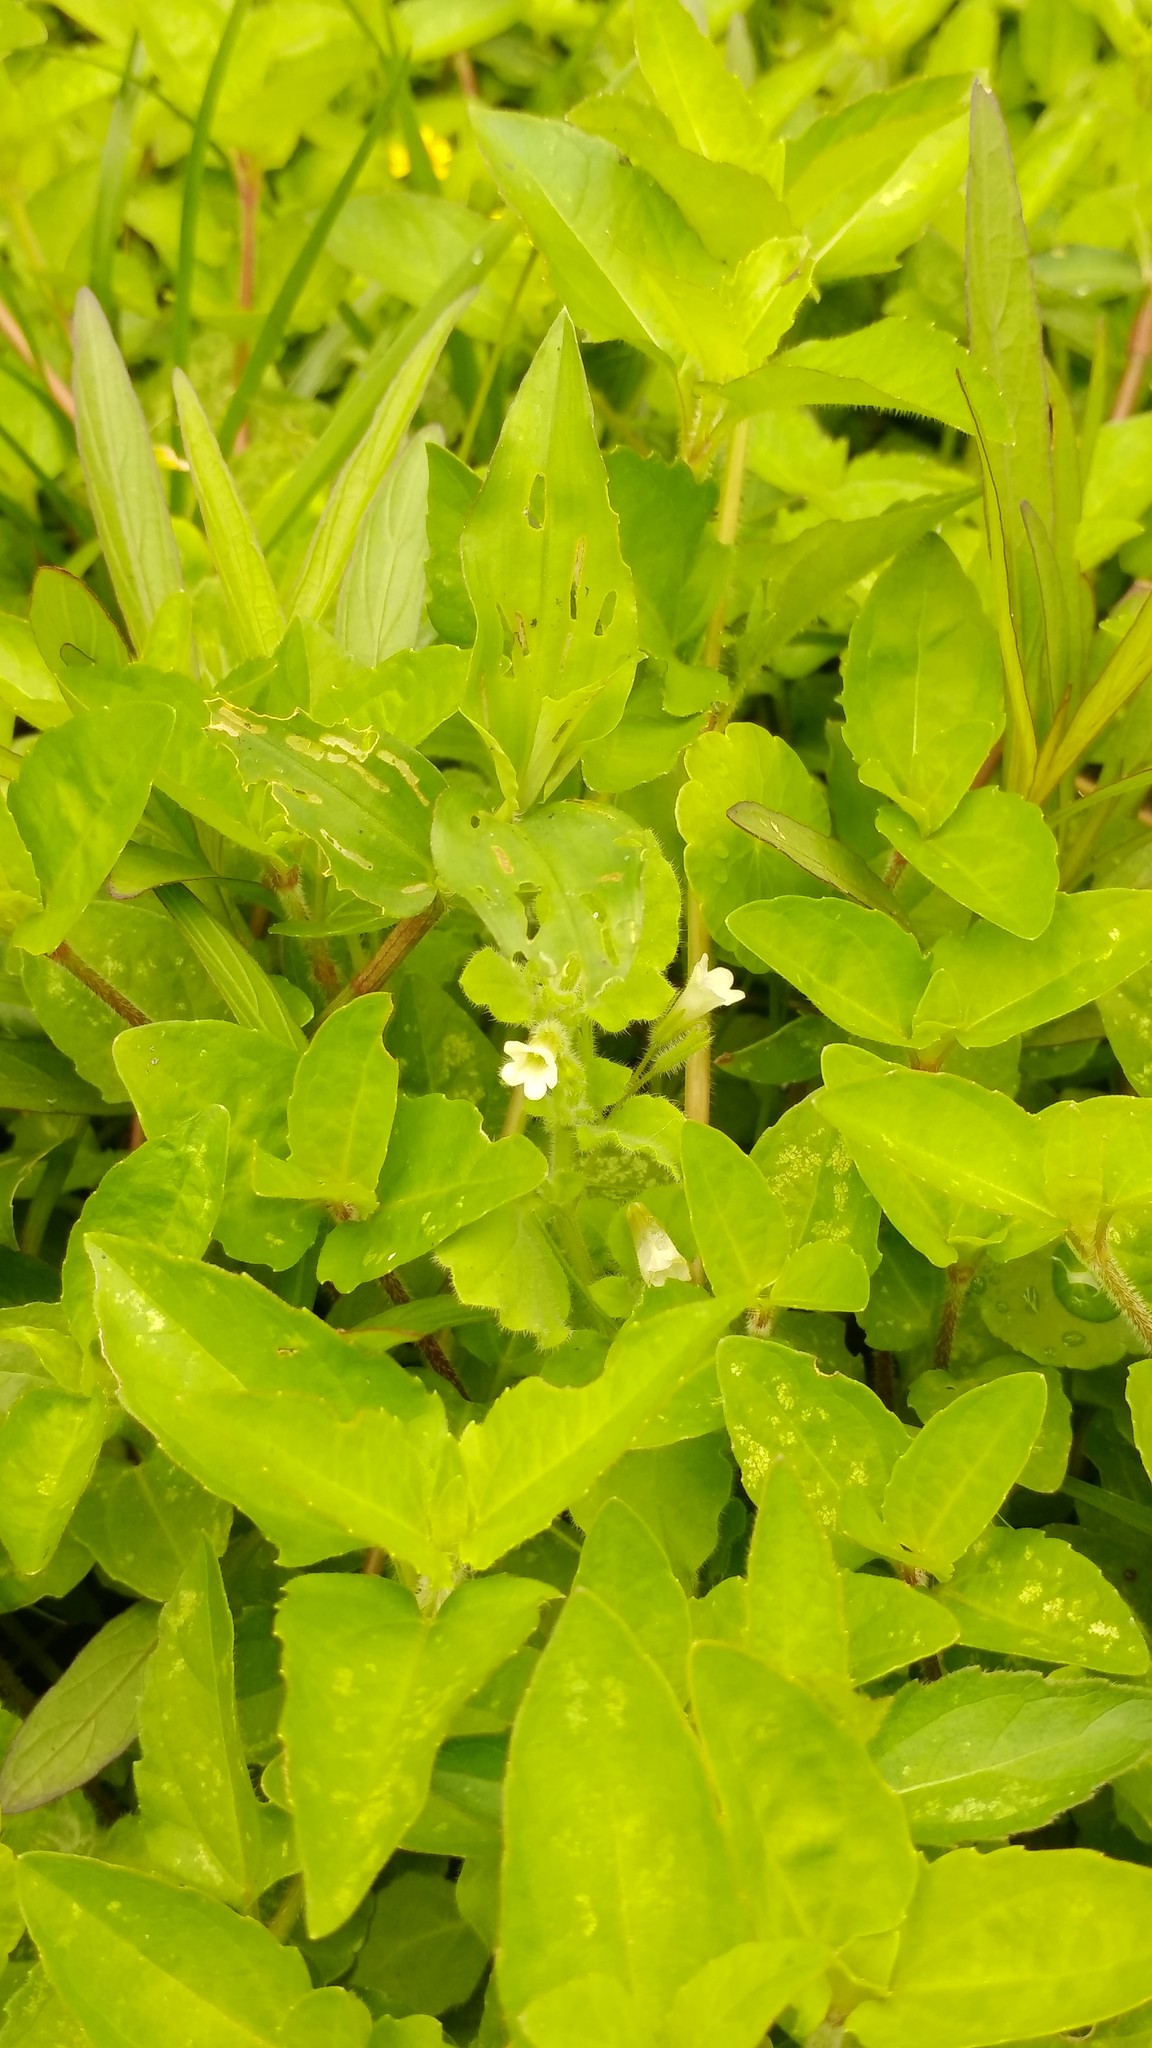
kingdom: Plantae
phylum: Tracheophyta
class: Magnoliopsida
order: Boraginales
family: Namaceae
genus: Nama
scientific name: Nama jamaicensis
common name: Jamaicanweed
